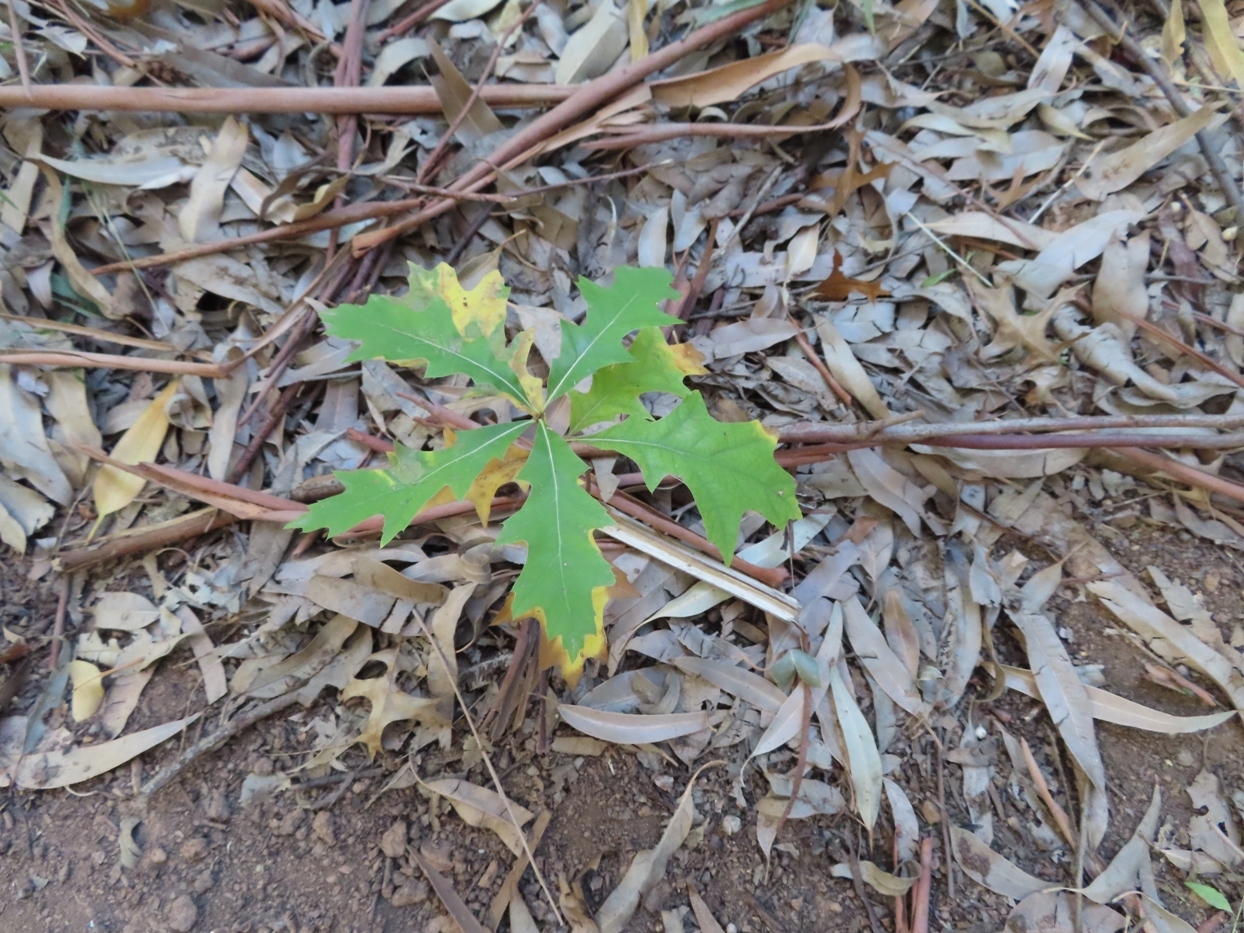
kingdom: Plantae
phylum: Tracheophyta
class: Magnoliopsida
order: Fagales
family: Fagaceae
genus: Quercus
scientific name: Quercus palustris
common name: Pin oak
